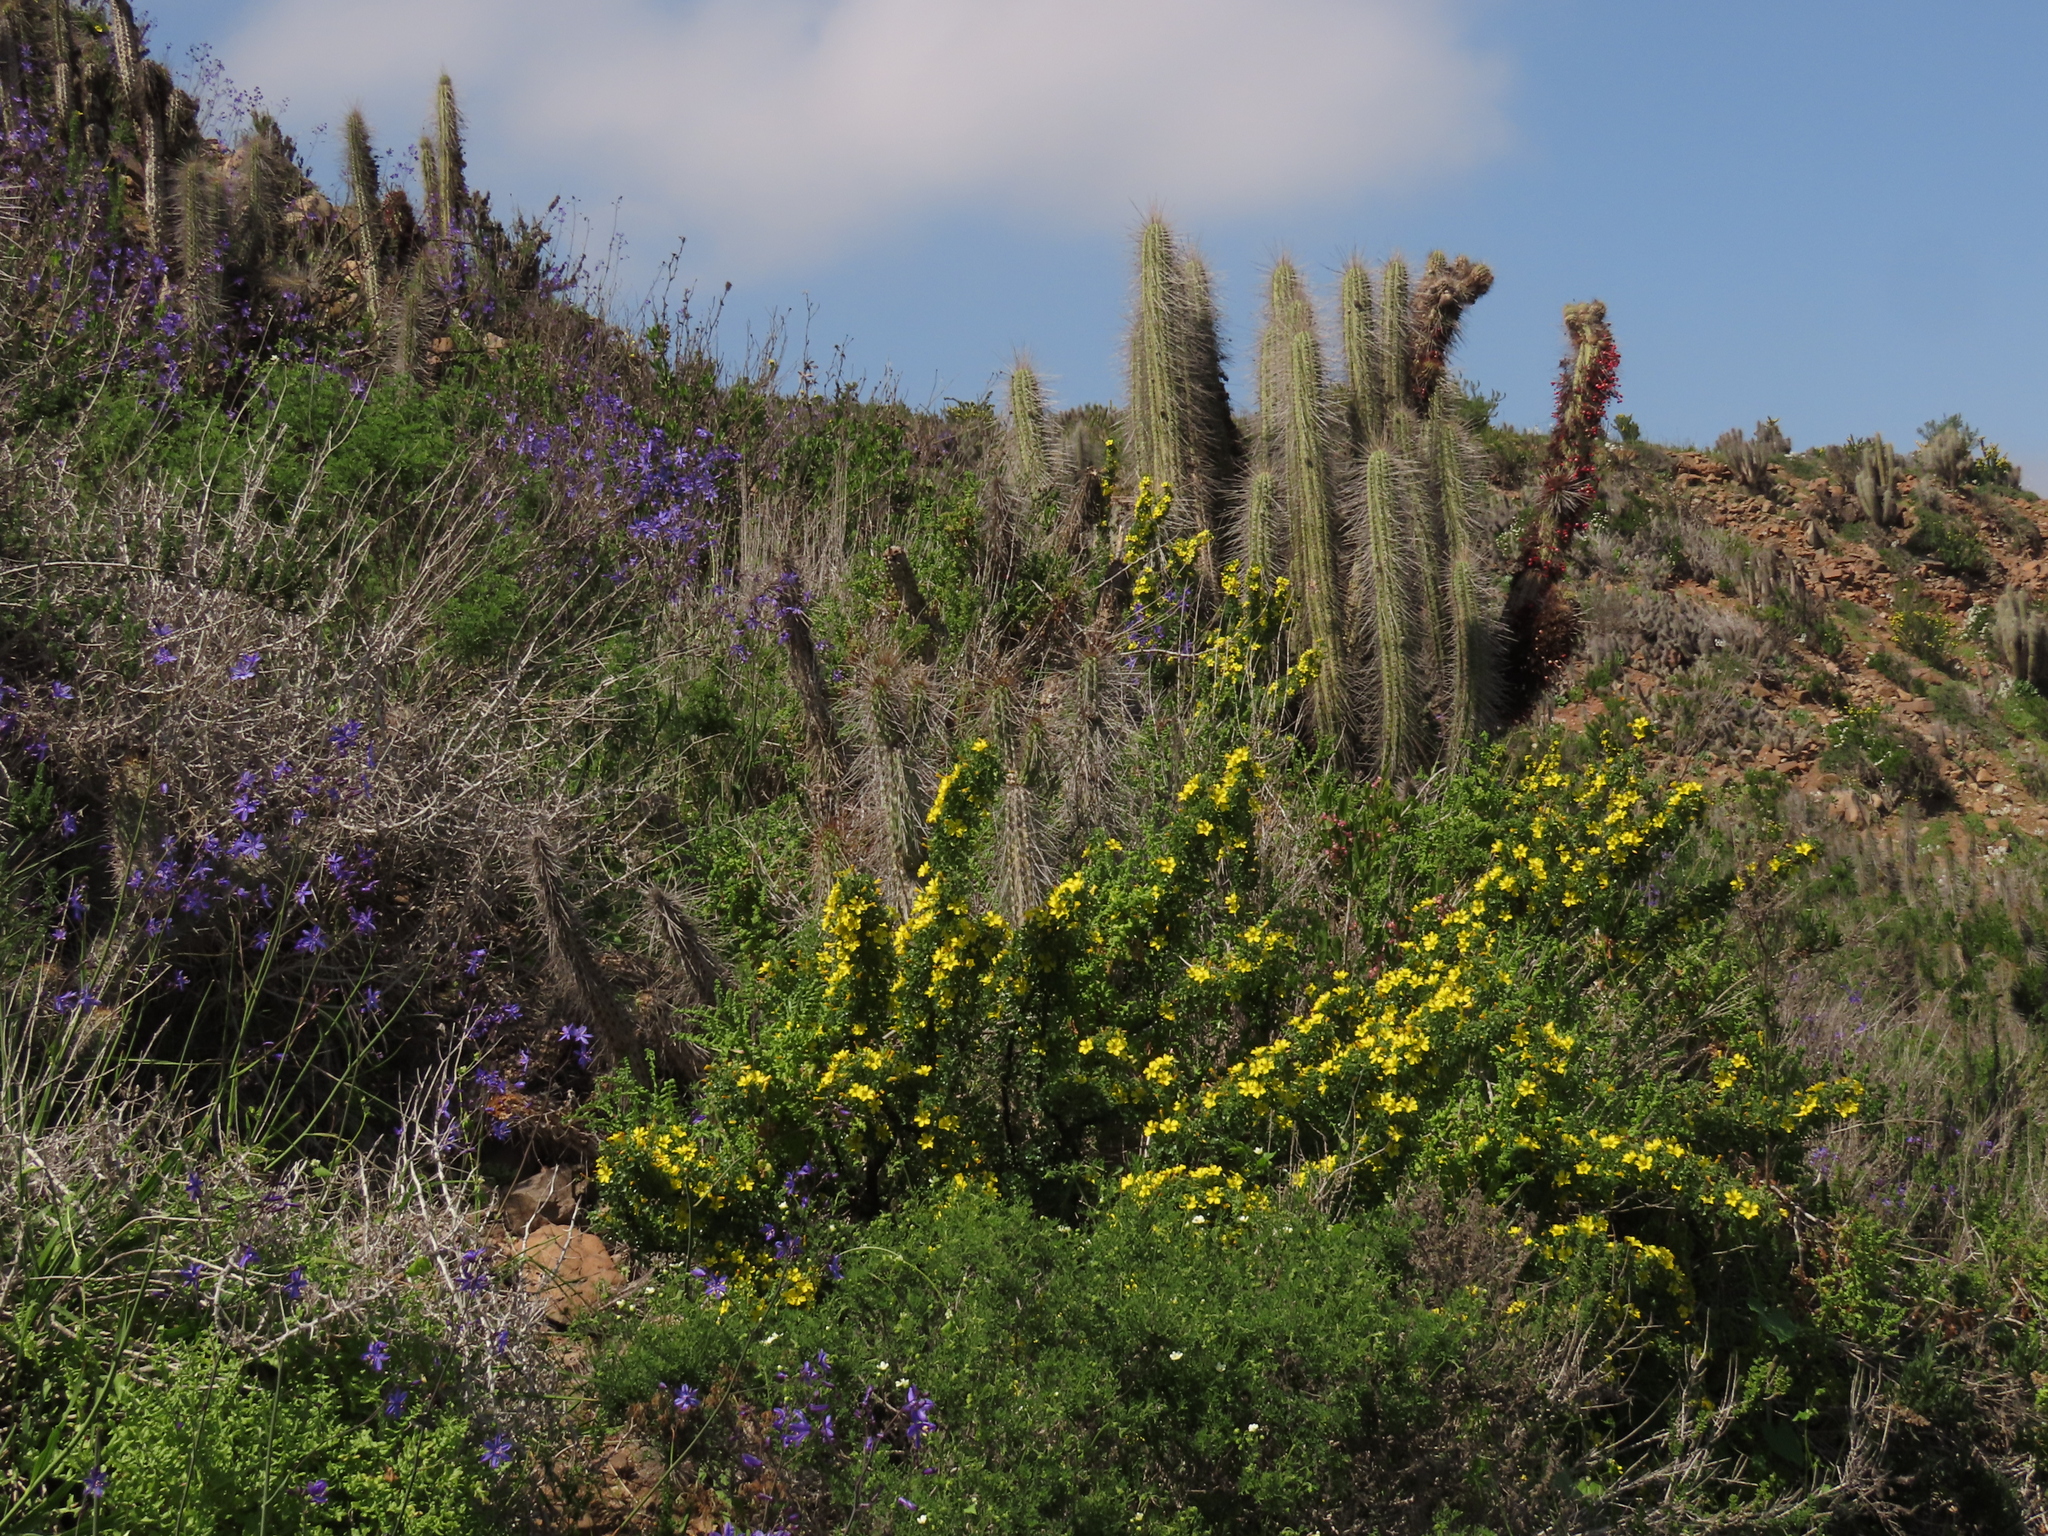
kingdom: Plantae
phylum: Tracheophyta
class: Magnoliopsida
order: Oxalidales
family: Oxalidaceae
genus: Oxalis
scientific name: Oxalis virgosa
